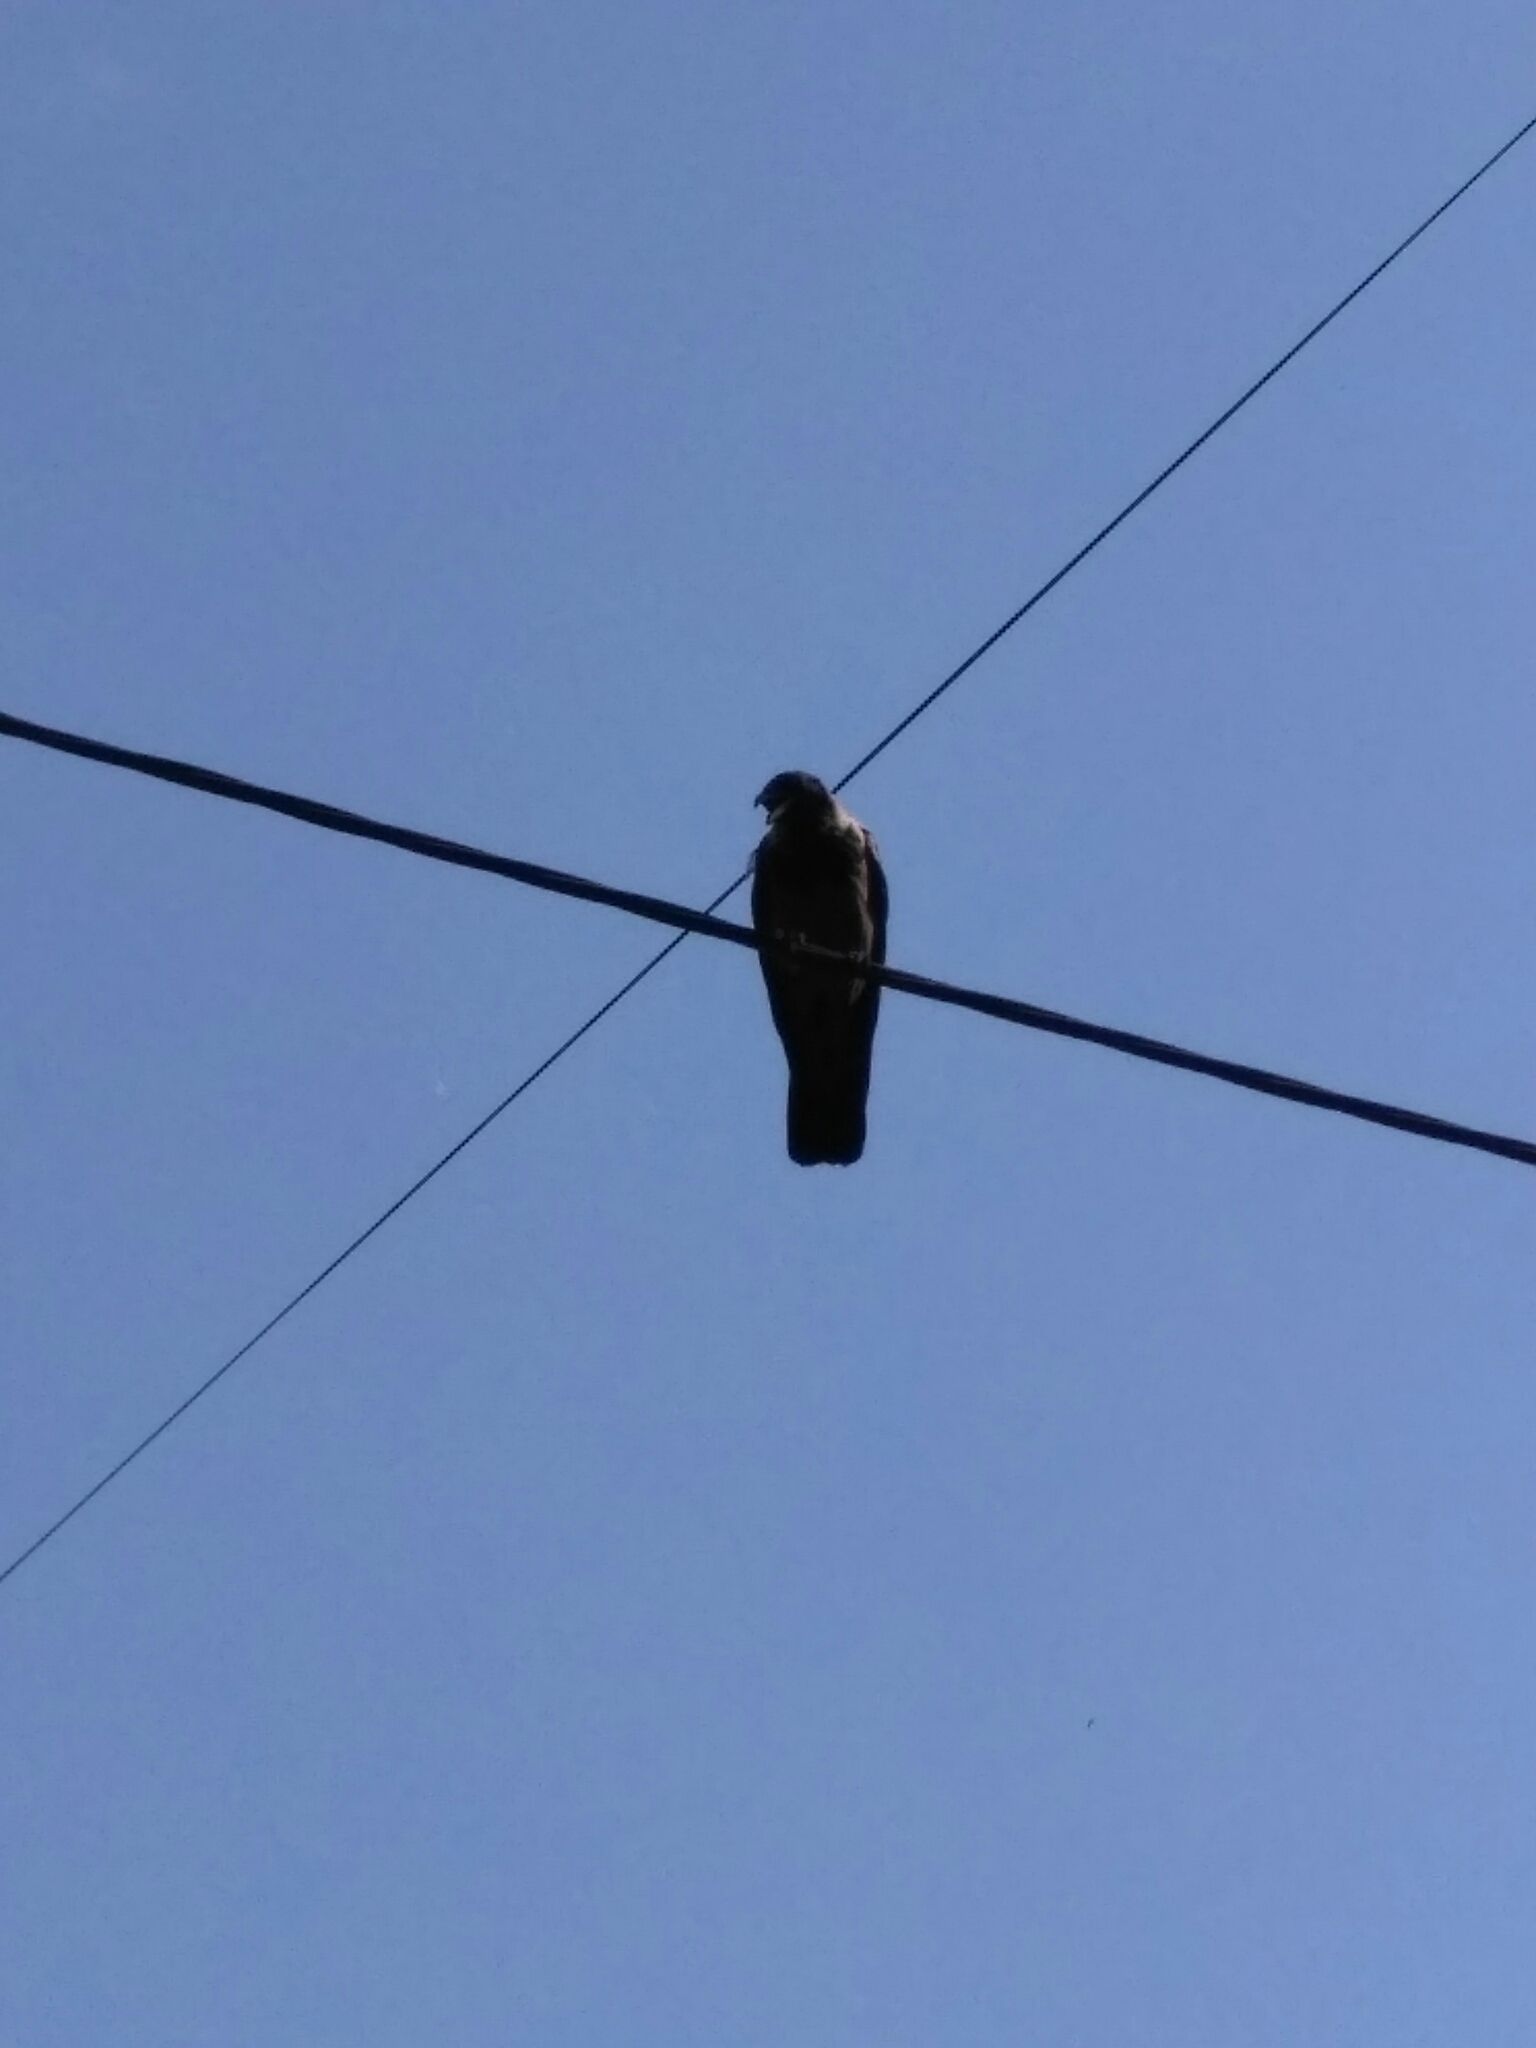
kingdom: Animalia
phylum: Chordata
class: Aves
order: Passeriformes
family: Corvidae
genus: Corvus
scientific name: Corvus cornix
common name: Hooded crow
